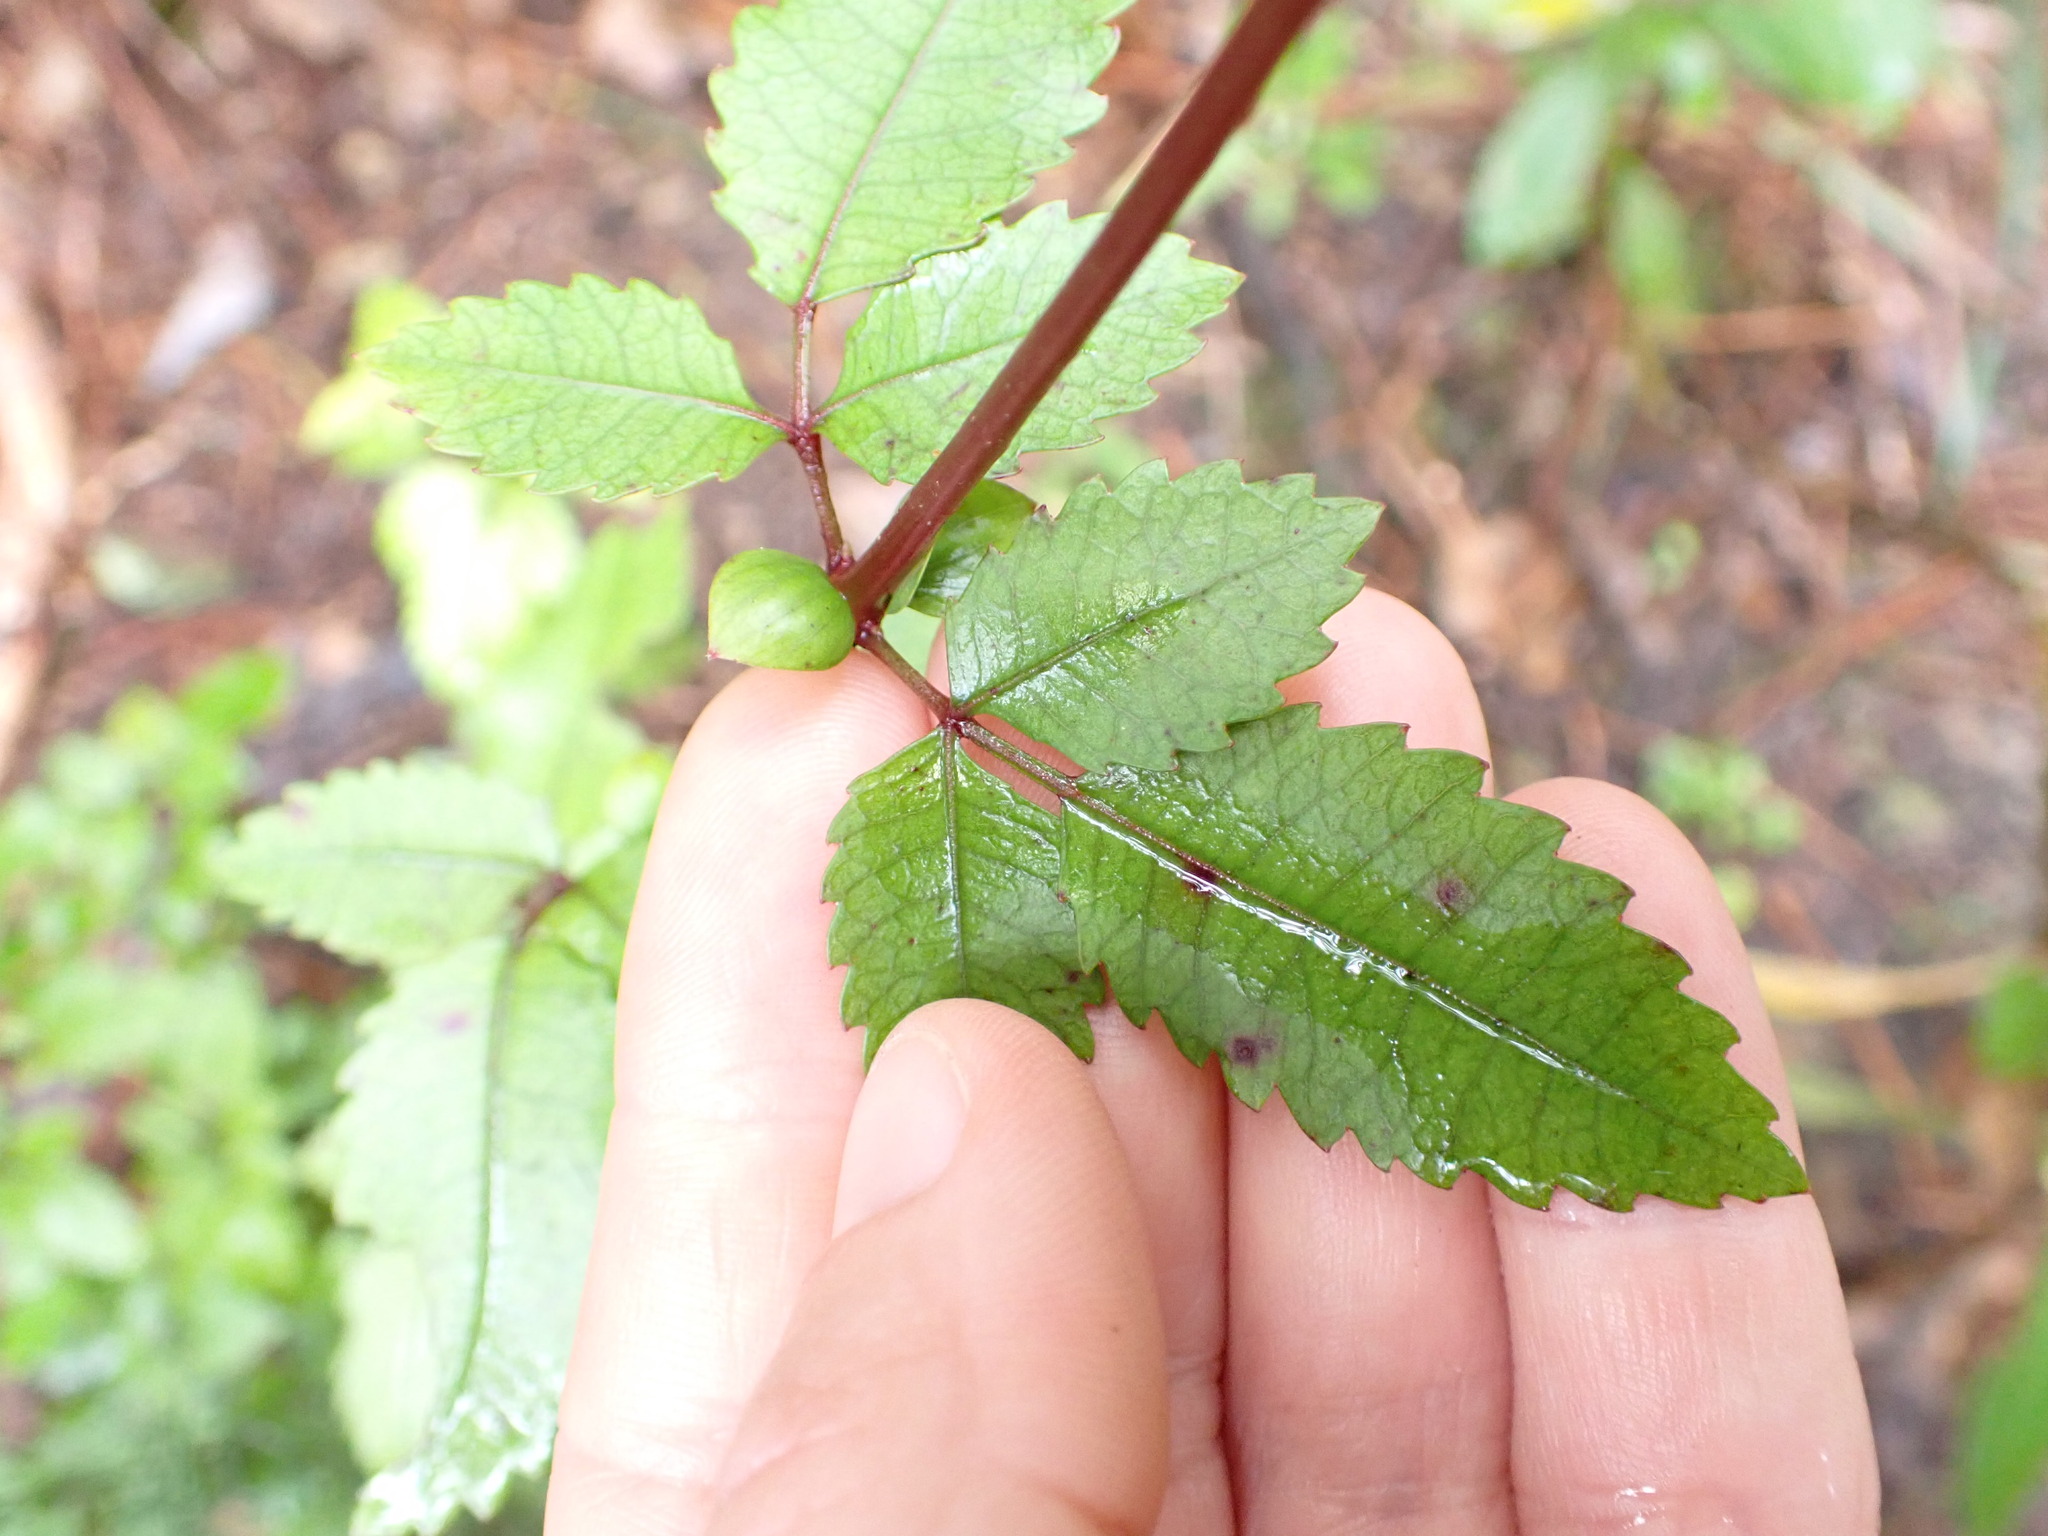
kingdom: Plantae
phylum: Tracheophyta
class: Magnoliopsida
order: Oxalidales
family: Cunoniaceae
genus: Pterophylla
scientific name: Pterophylla racemosa
